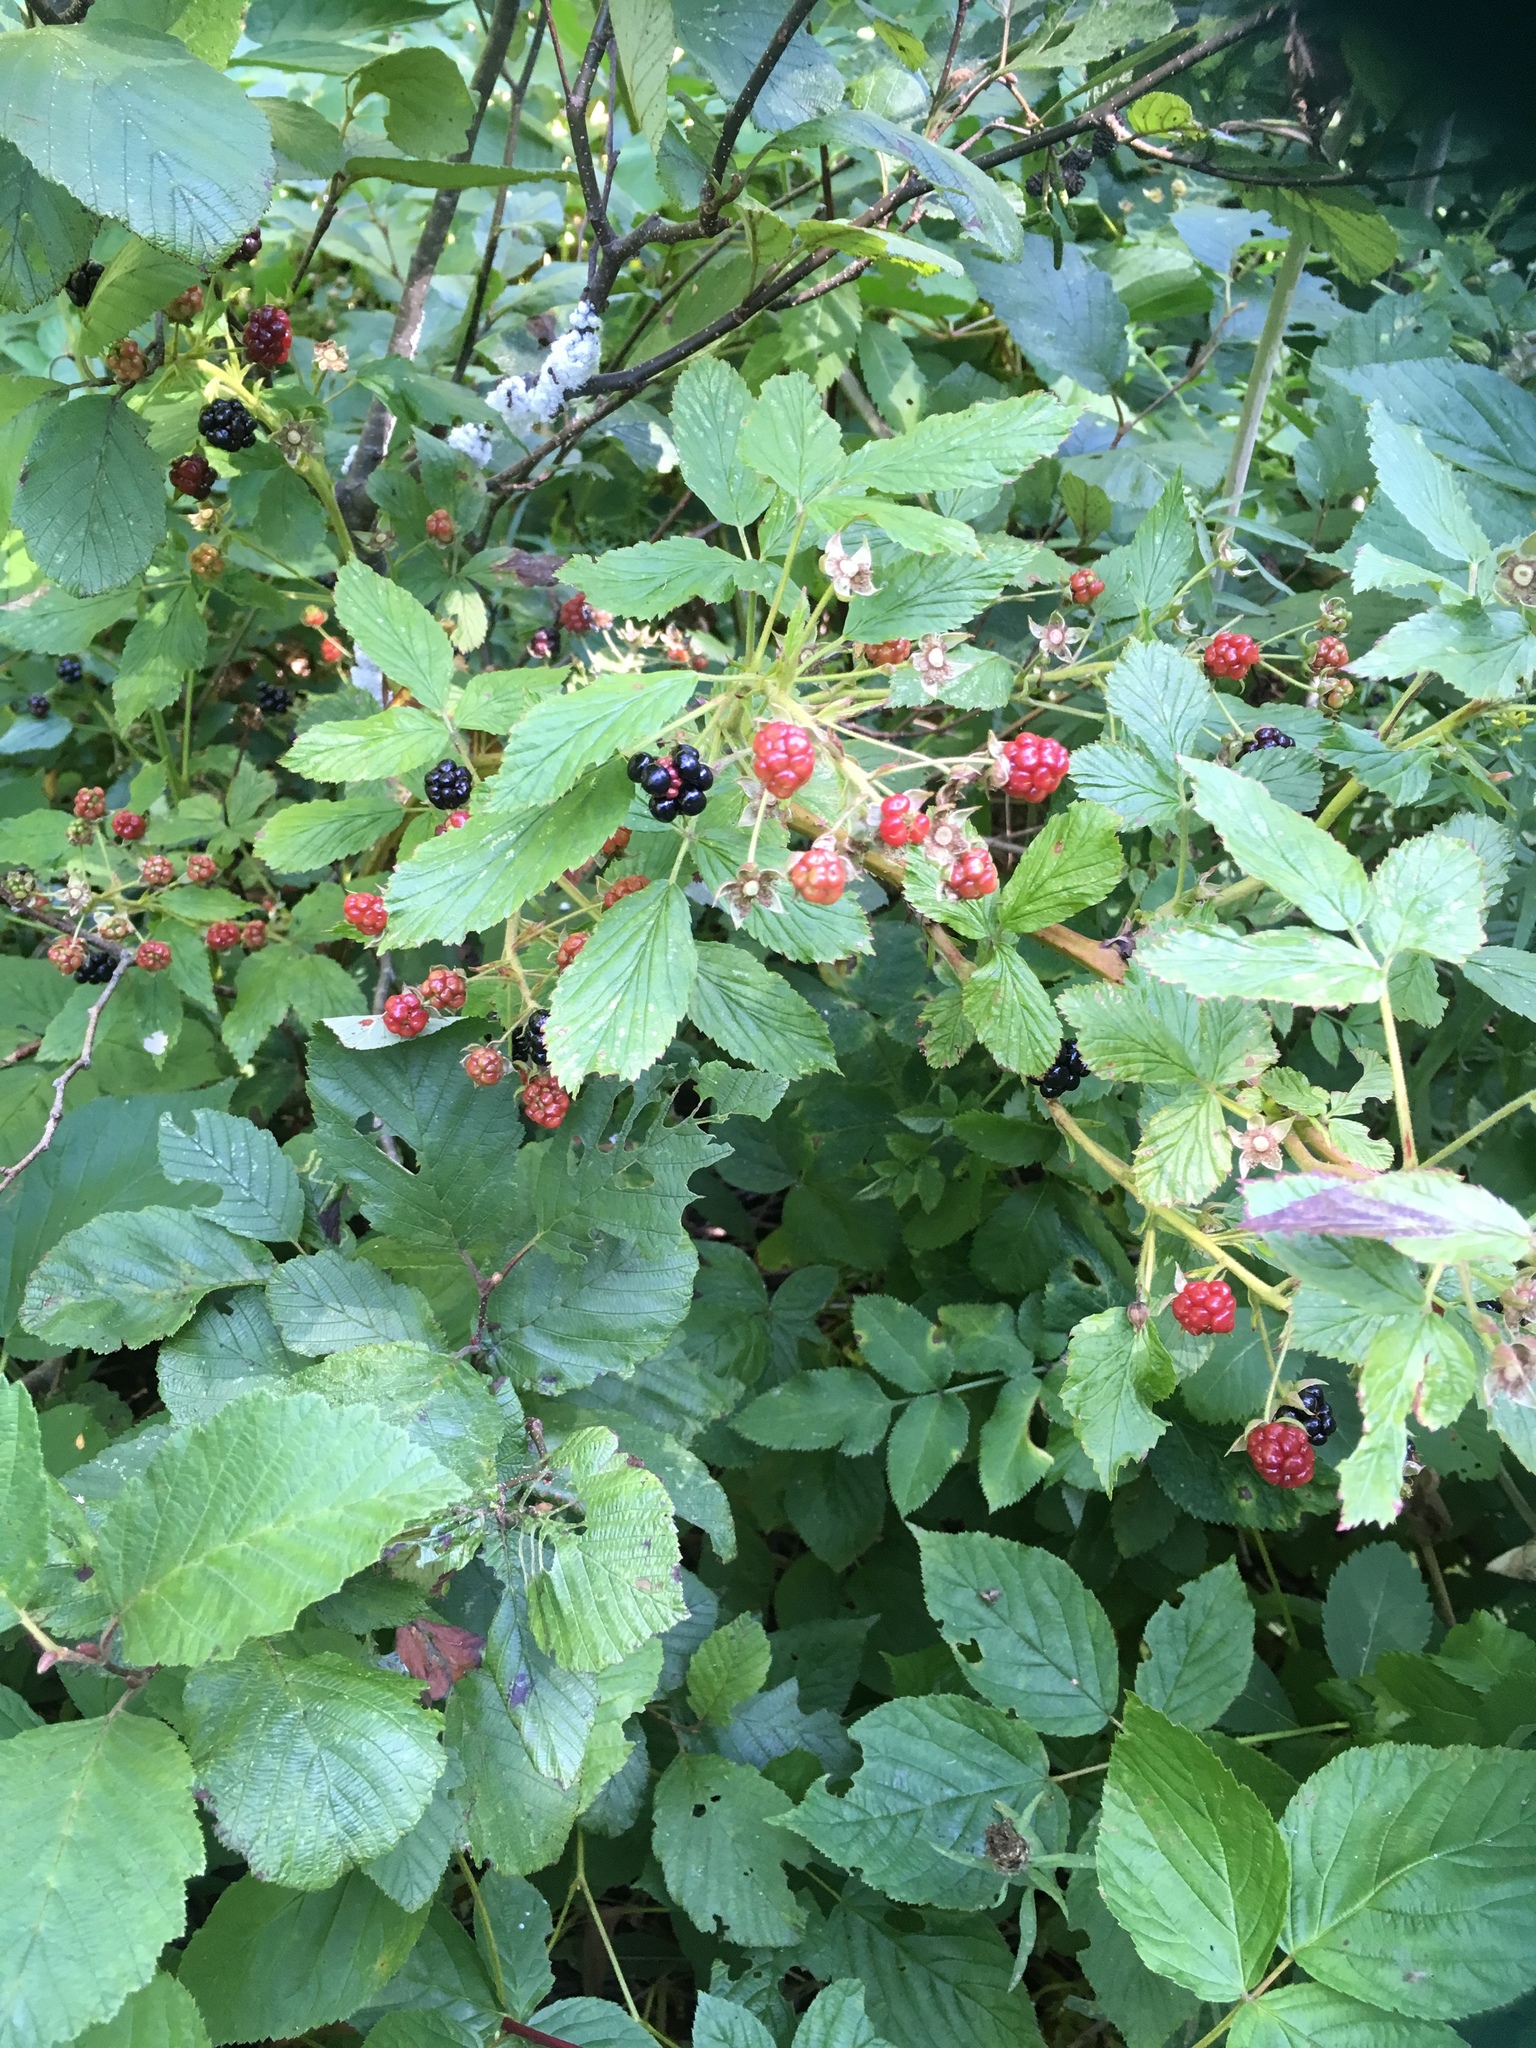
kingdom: Plantae
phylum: Tracheophyta
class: Magnoliopsida
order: Rosales
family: Rosaceae
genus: Rubus
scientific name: Rubus allegheniensis
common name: Allegheny blackberry
